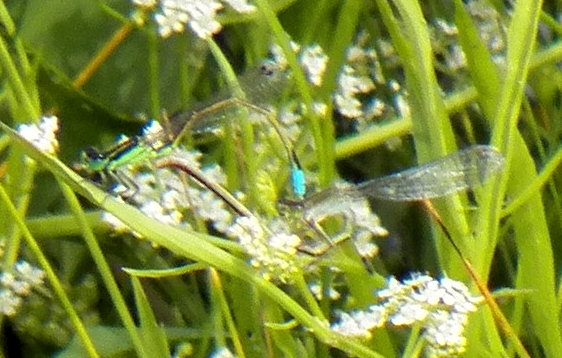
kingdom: Animalia
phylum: Arthropoda
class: Insecta
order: Odonata
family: Coenagrionidae
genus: Ischnura
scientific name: Ischnura ramburii
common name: Rambur's forktail
